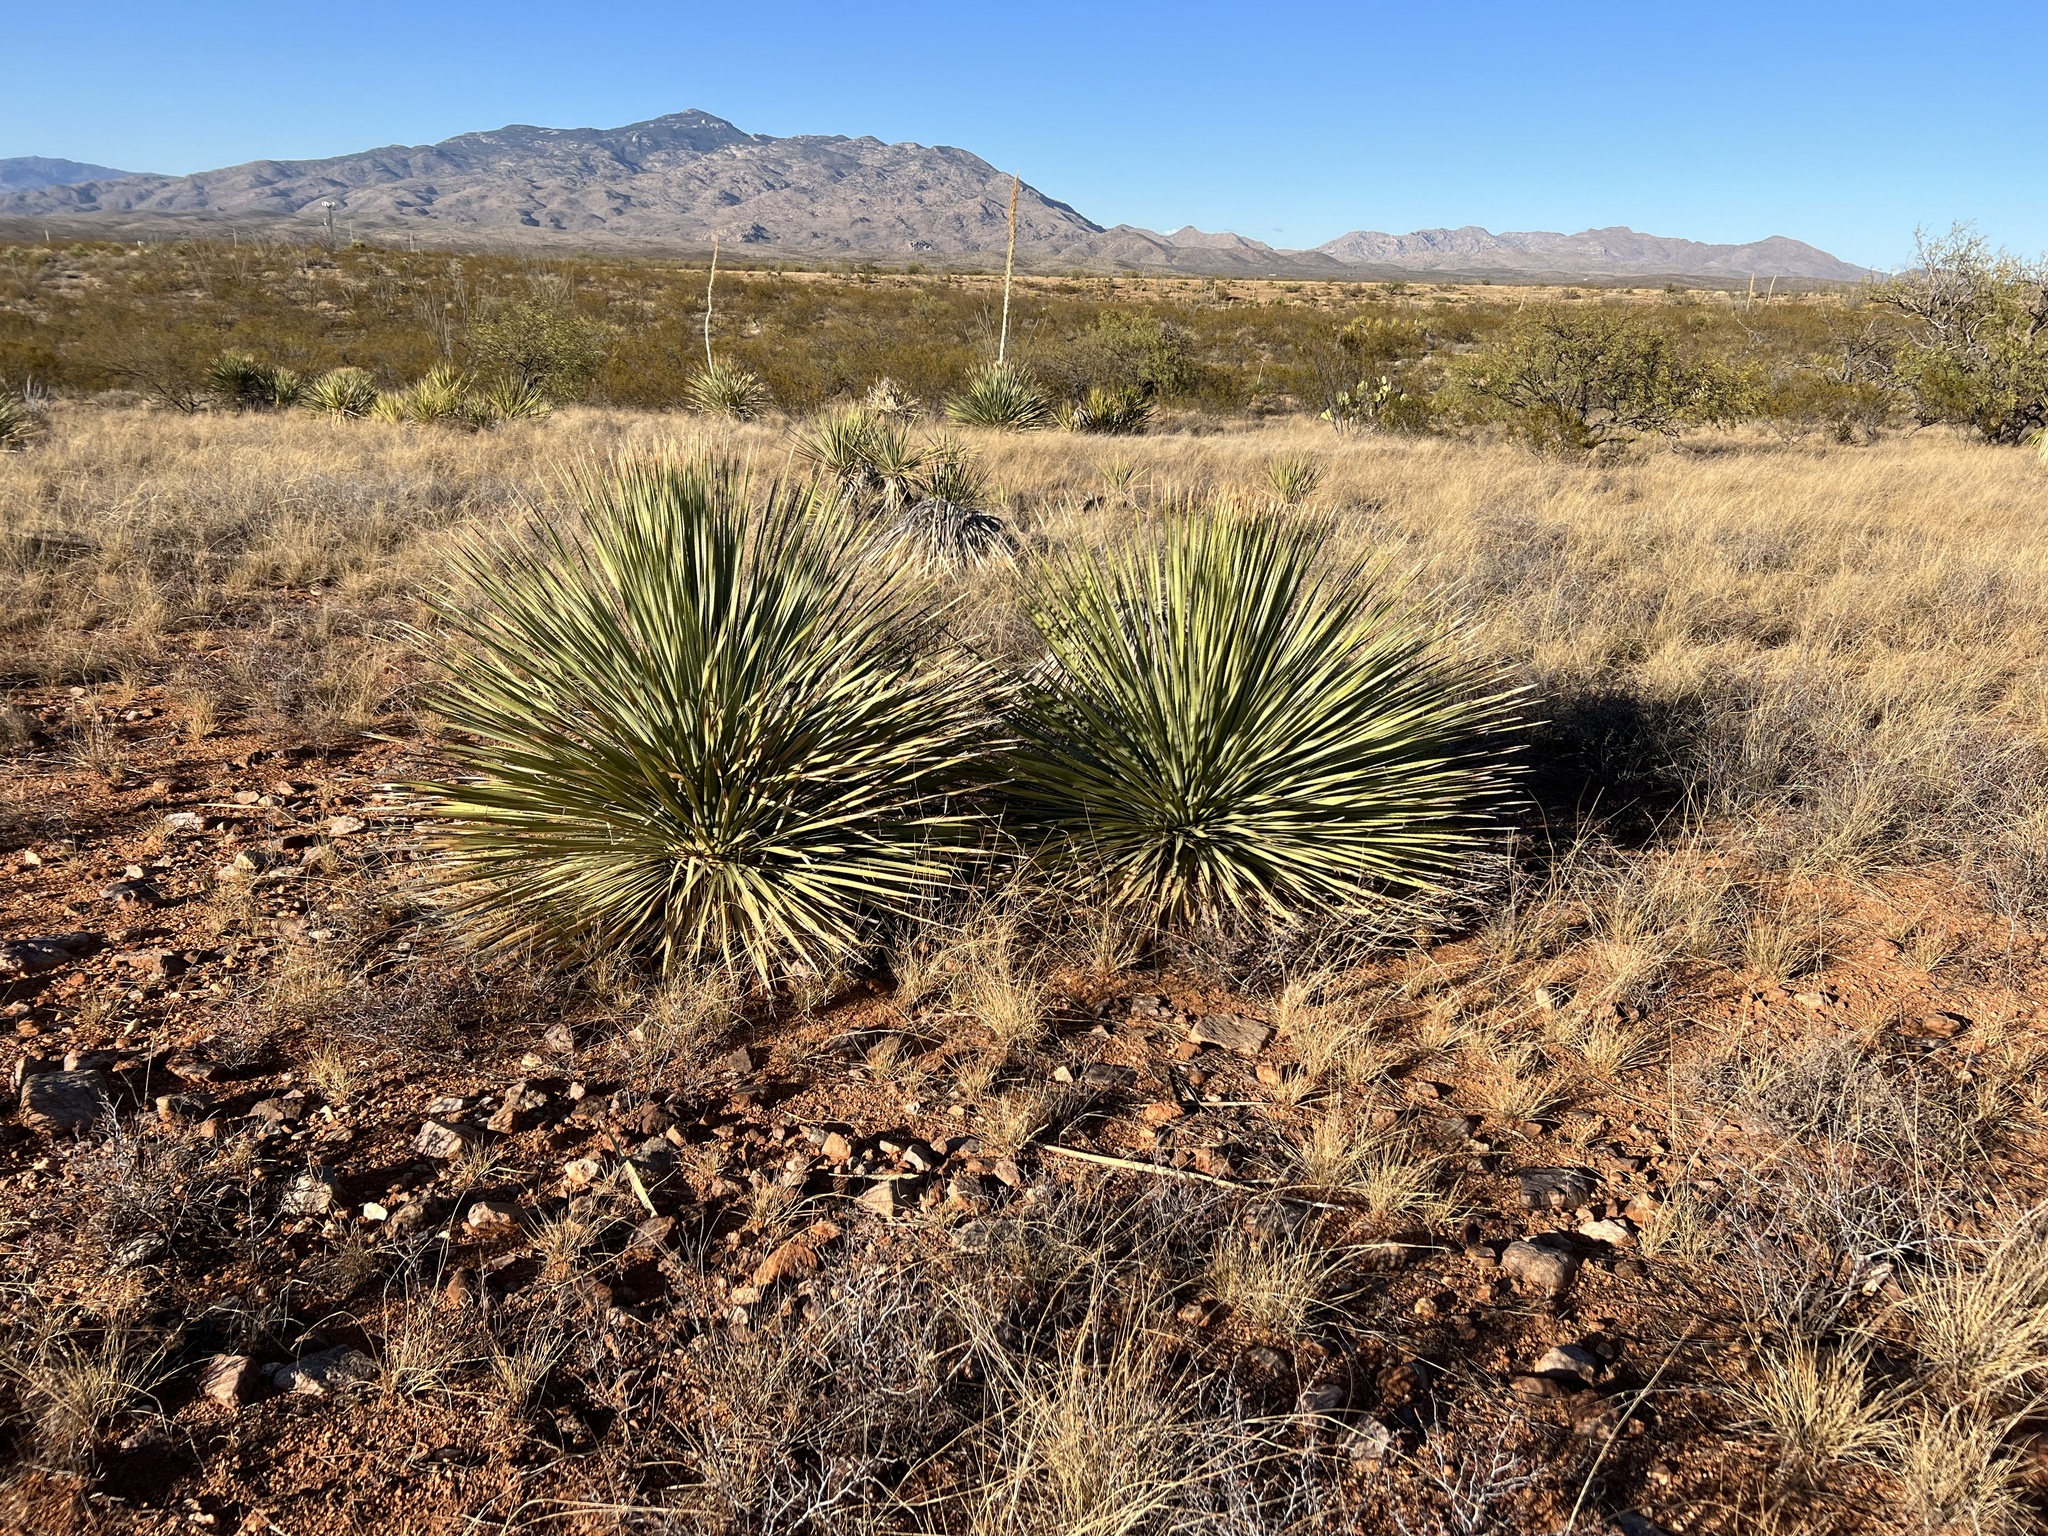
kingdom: Plantae
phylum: Tracheophyta
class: Liliopsida
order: Asparagales
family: Asparagaceae
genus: Dasylirion
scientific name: Dasylirion wheeleri
